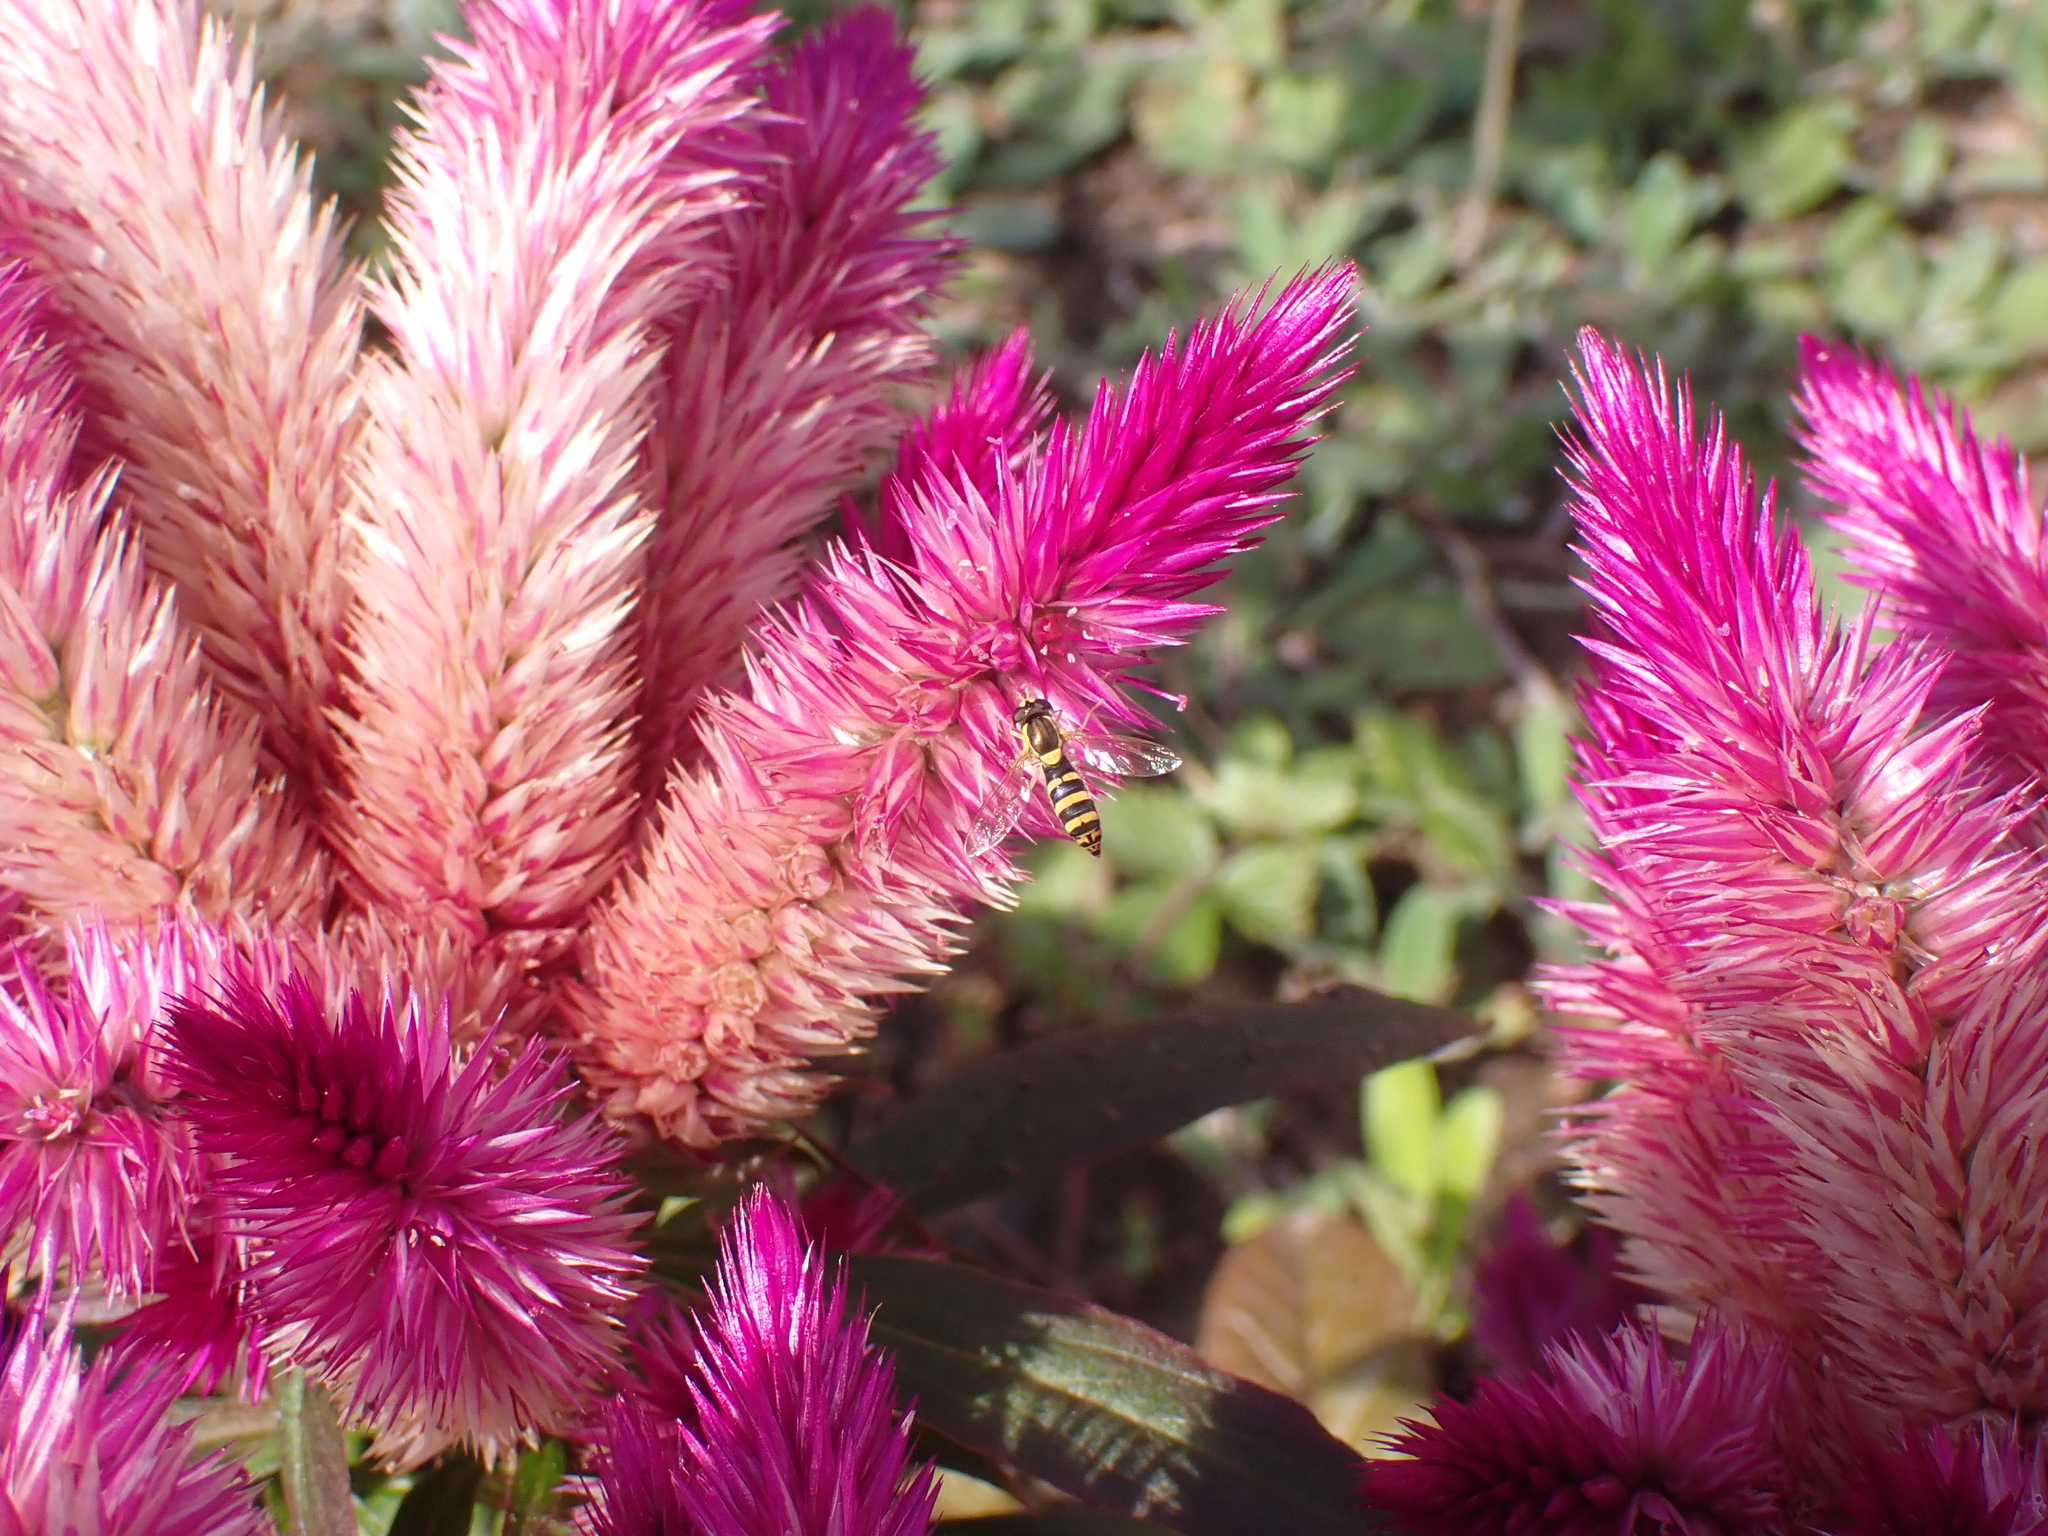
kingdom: Animalia
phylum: Arthropoda
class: Insecta
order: Diptera
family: Syrphidae
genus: Sphaerophoria
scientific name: Sphaerophoria scripta
